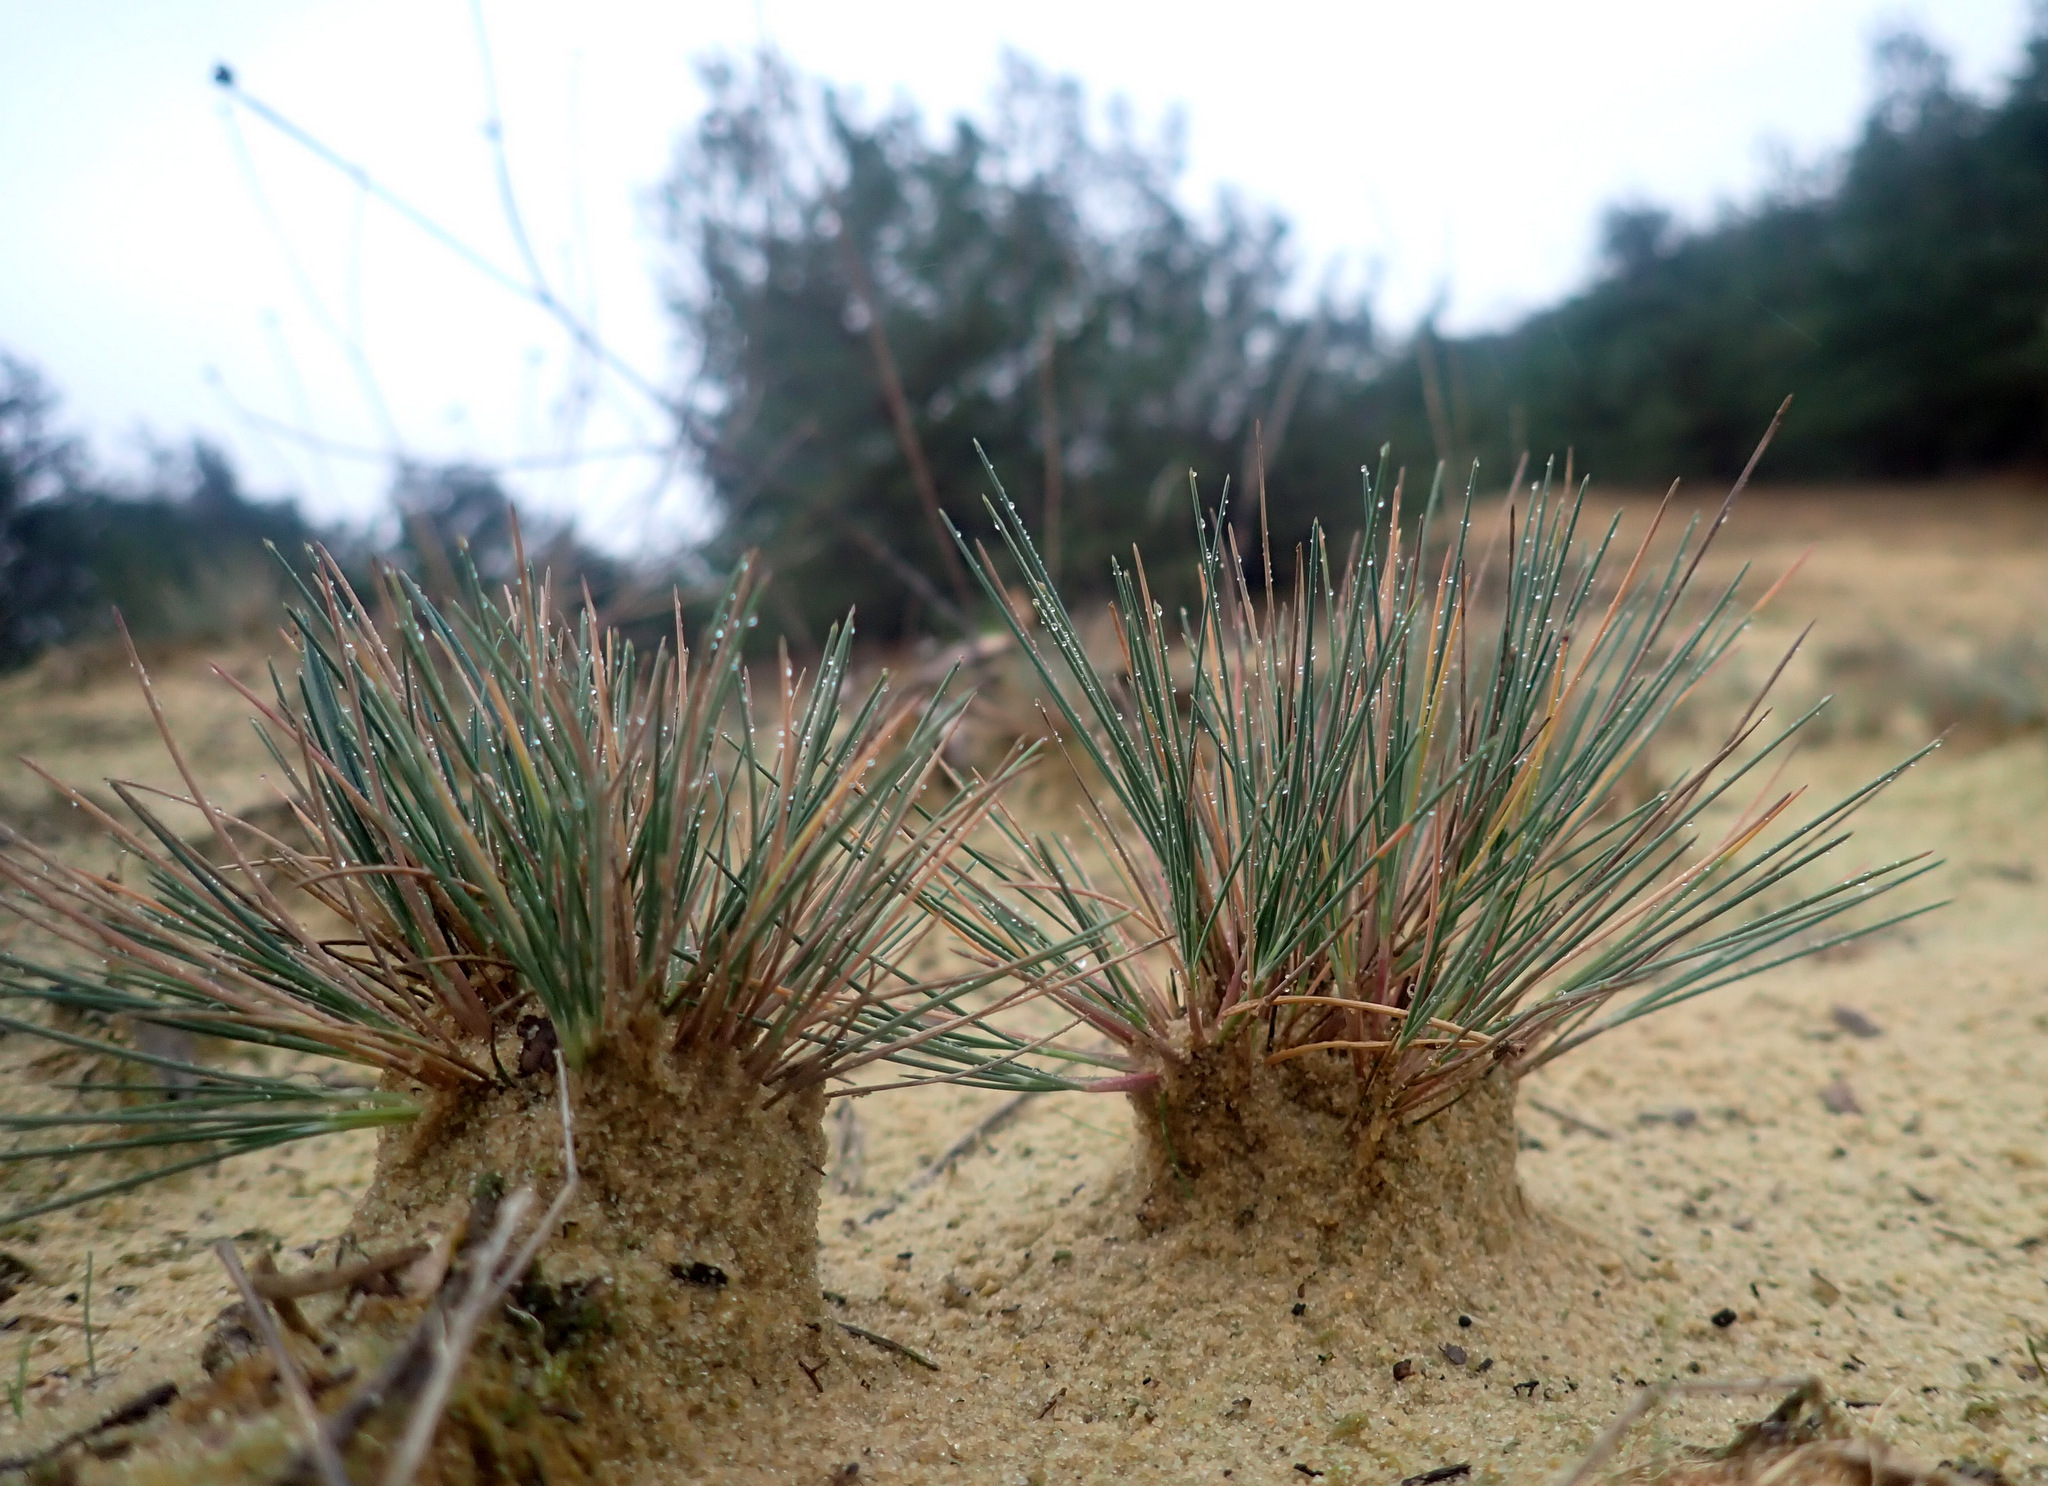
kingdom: Plantae
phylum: Tracheophyta
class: Liliopsida
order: Poales
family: Poaceae
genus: Corynephorus
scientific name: Corynephorus canescens
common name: Grey hair-grass
